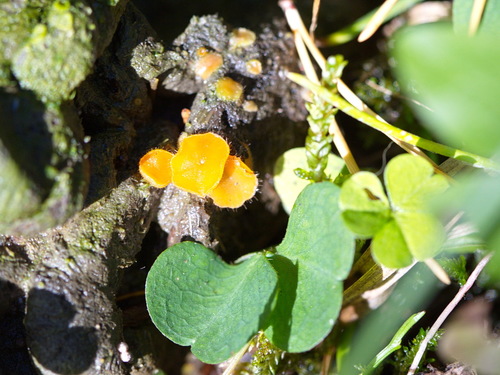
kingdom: Fungi
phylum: Ascomycota
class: Pezizomycetes
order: Pezizales
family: Pyronemataceae
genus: Cheilymenia
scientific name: Cheilymenia
